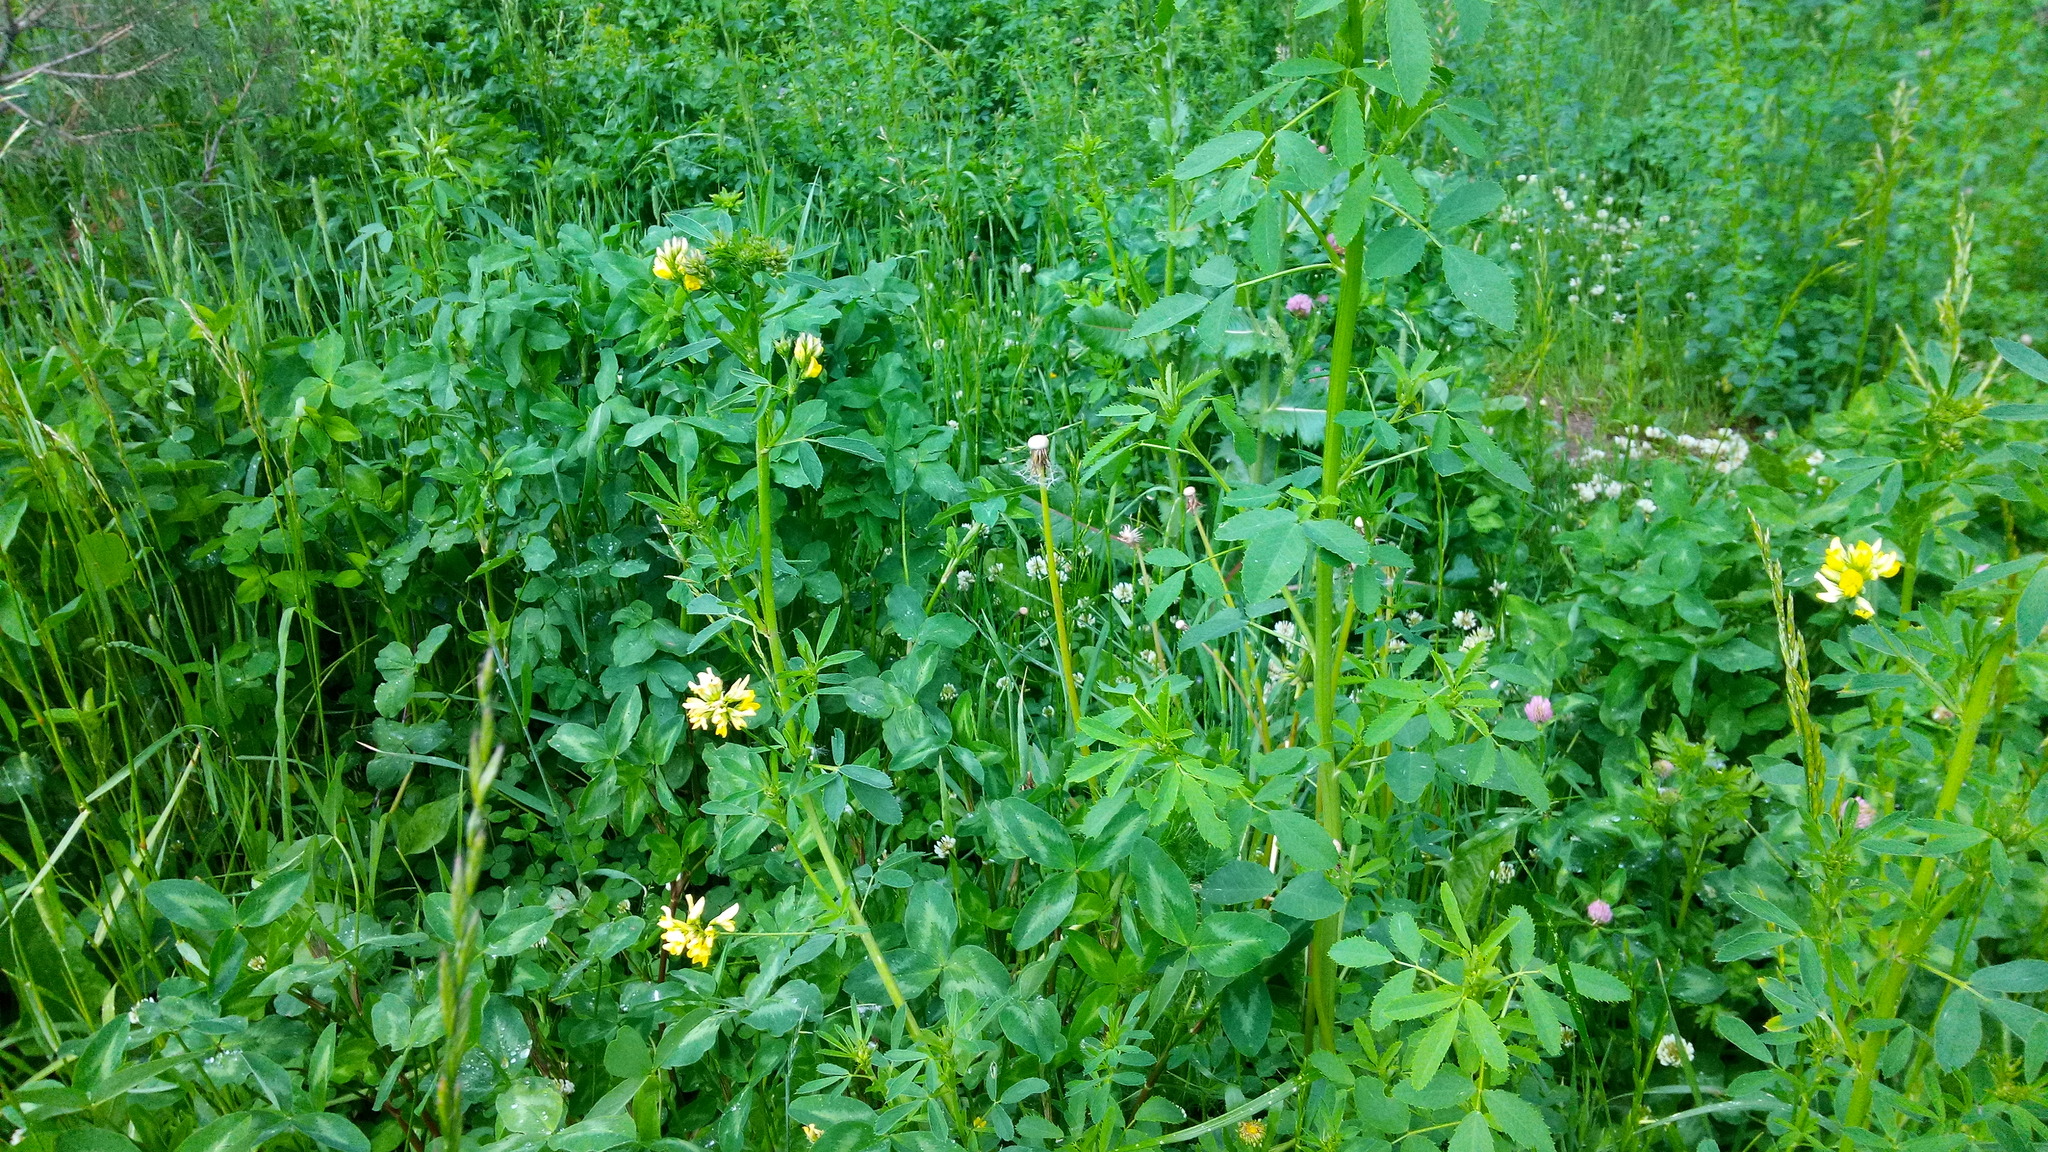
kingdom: Plantae
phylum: Tracheophyta
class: Magnoliopsida
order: Fabales
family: Fabaceae
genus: Medicago
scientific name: Medicago varia
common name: Sand lucerne
